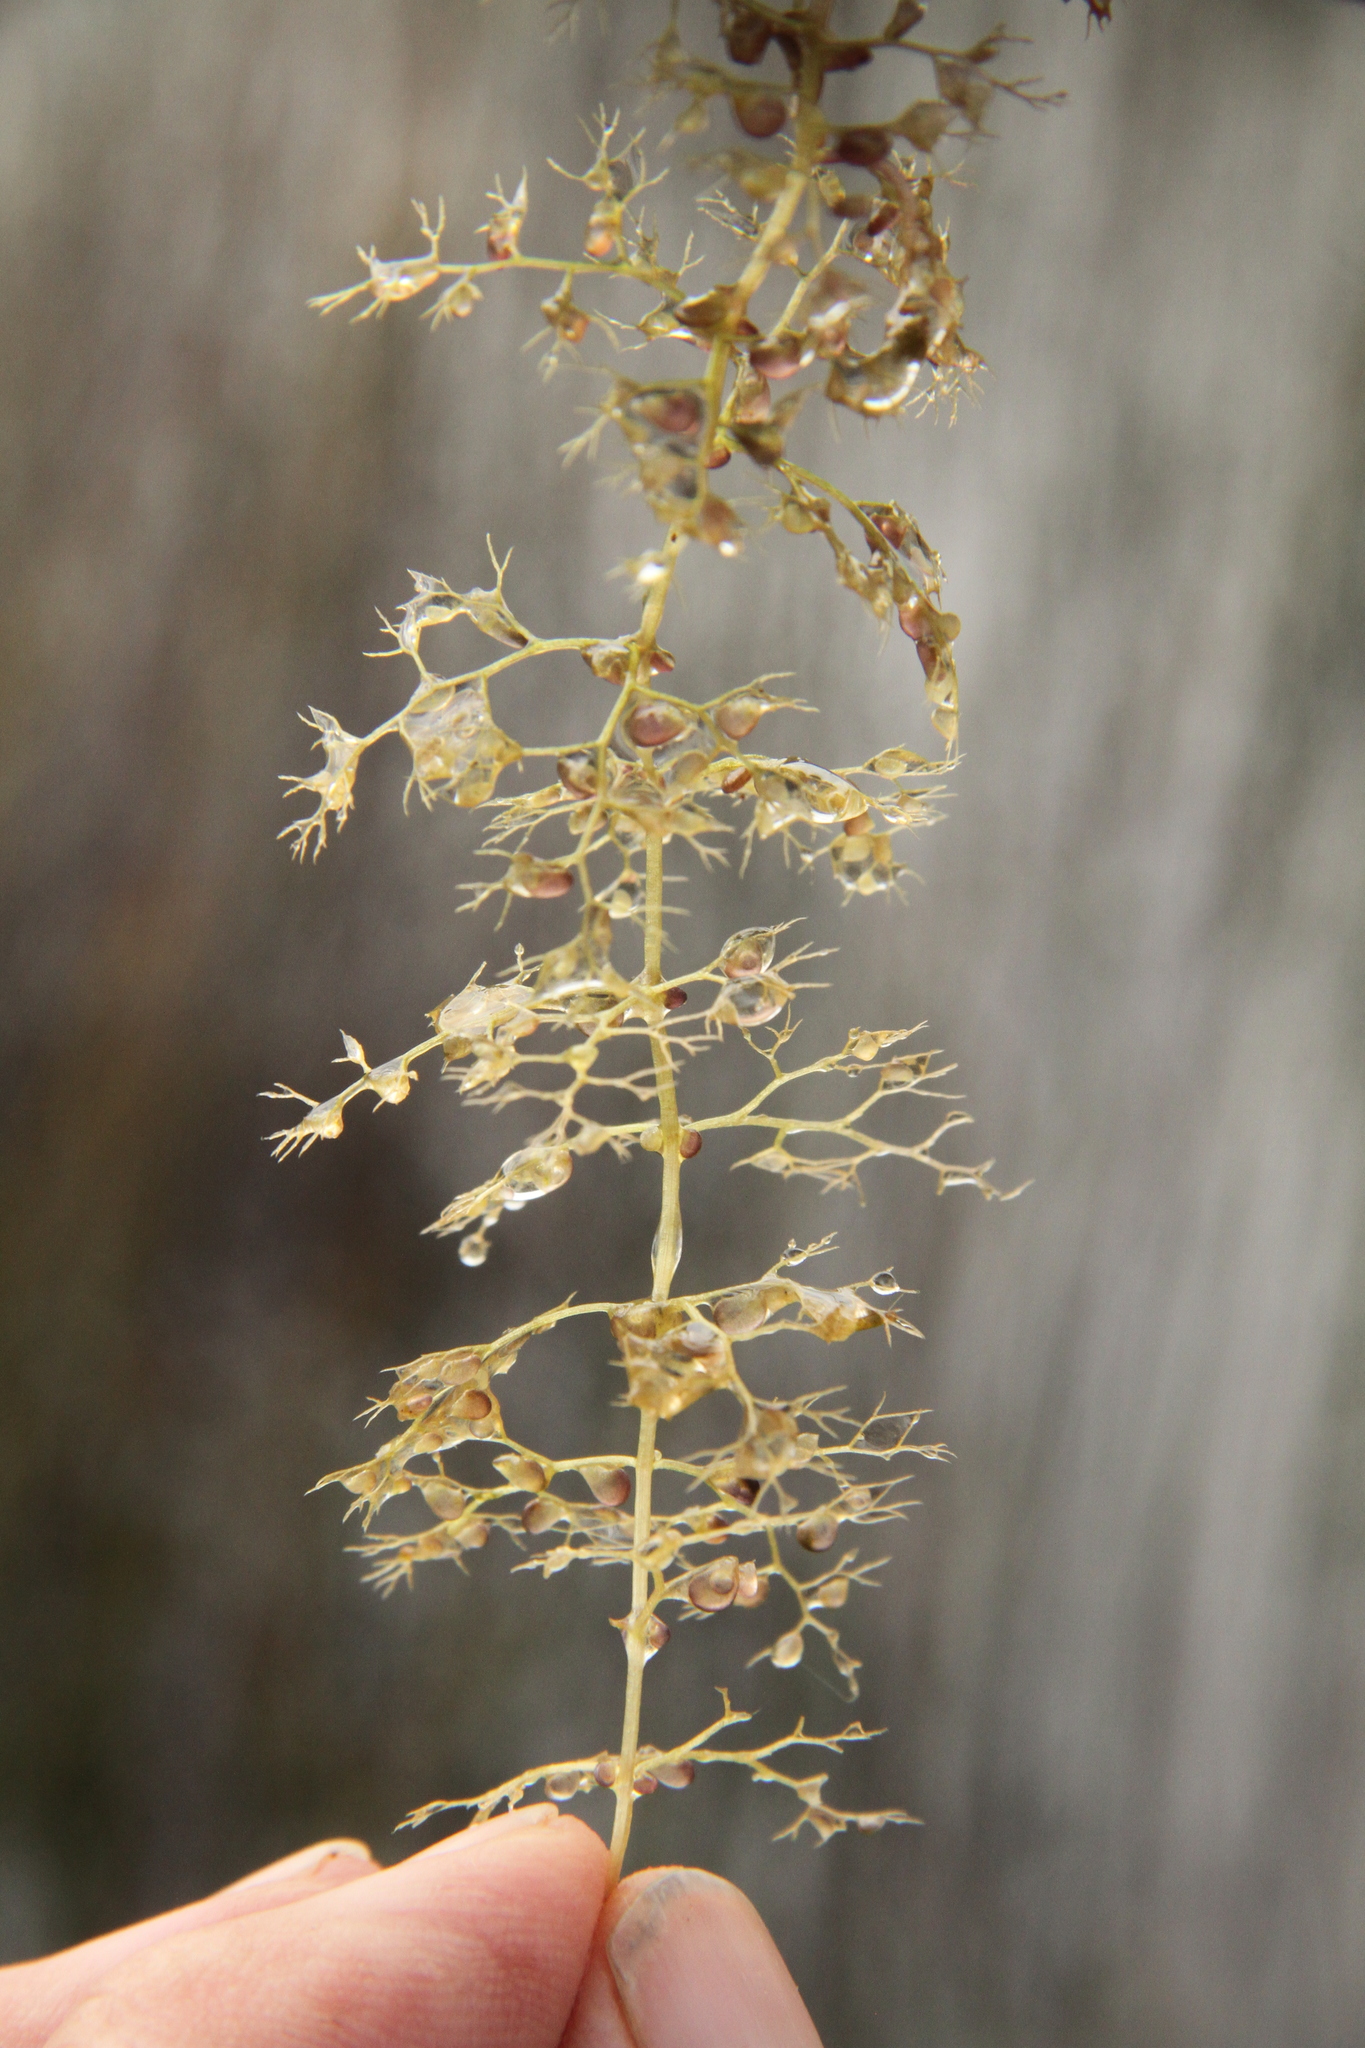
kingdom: Plantae
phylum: Tracheophyta
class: Magnoliopsida
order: Lamiales
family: Lentibulariaceae
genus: Utricularia
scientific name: Utricularia australis
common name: Bladderwort
